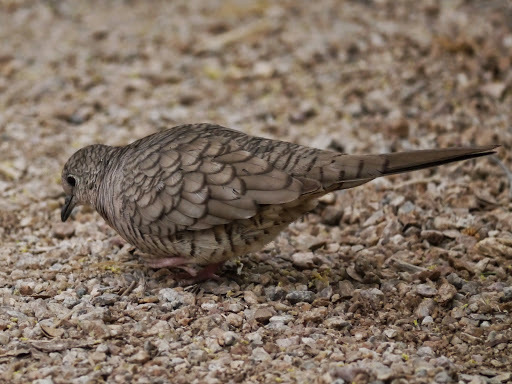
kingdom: Animalia
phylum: Chordata
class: Aves
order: Columbiformes
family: Columbidae
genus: Columbina
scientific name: Columbina inca
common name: Inca dove
